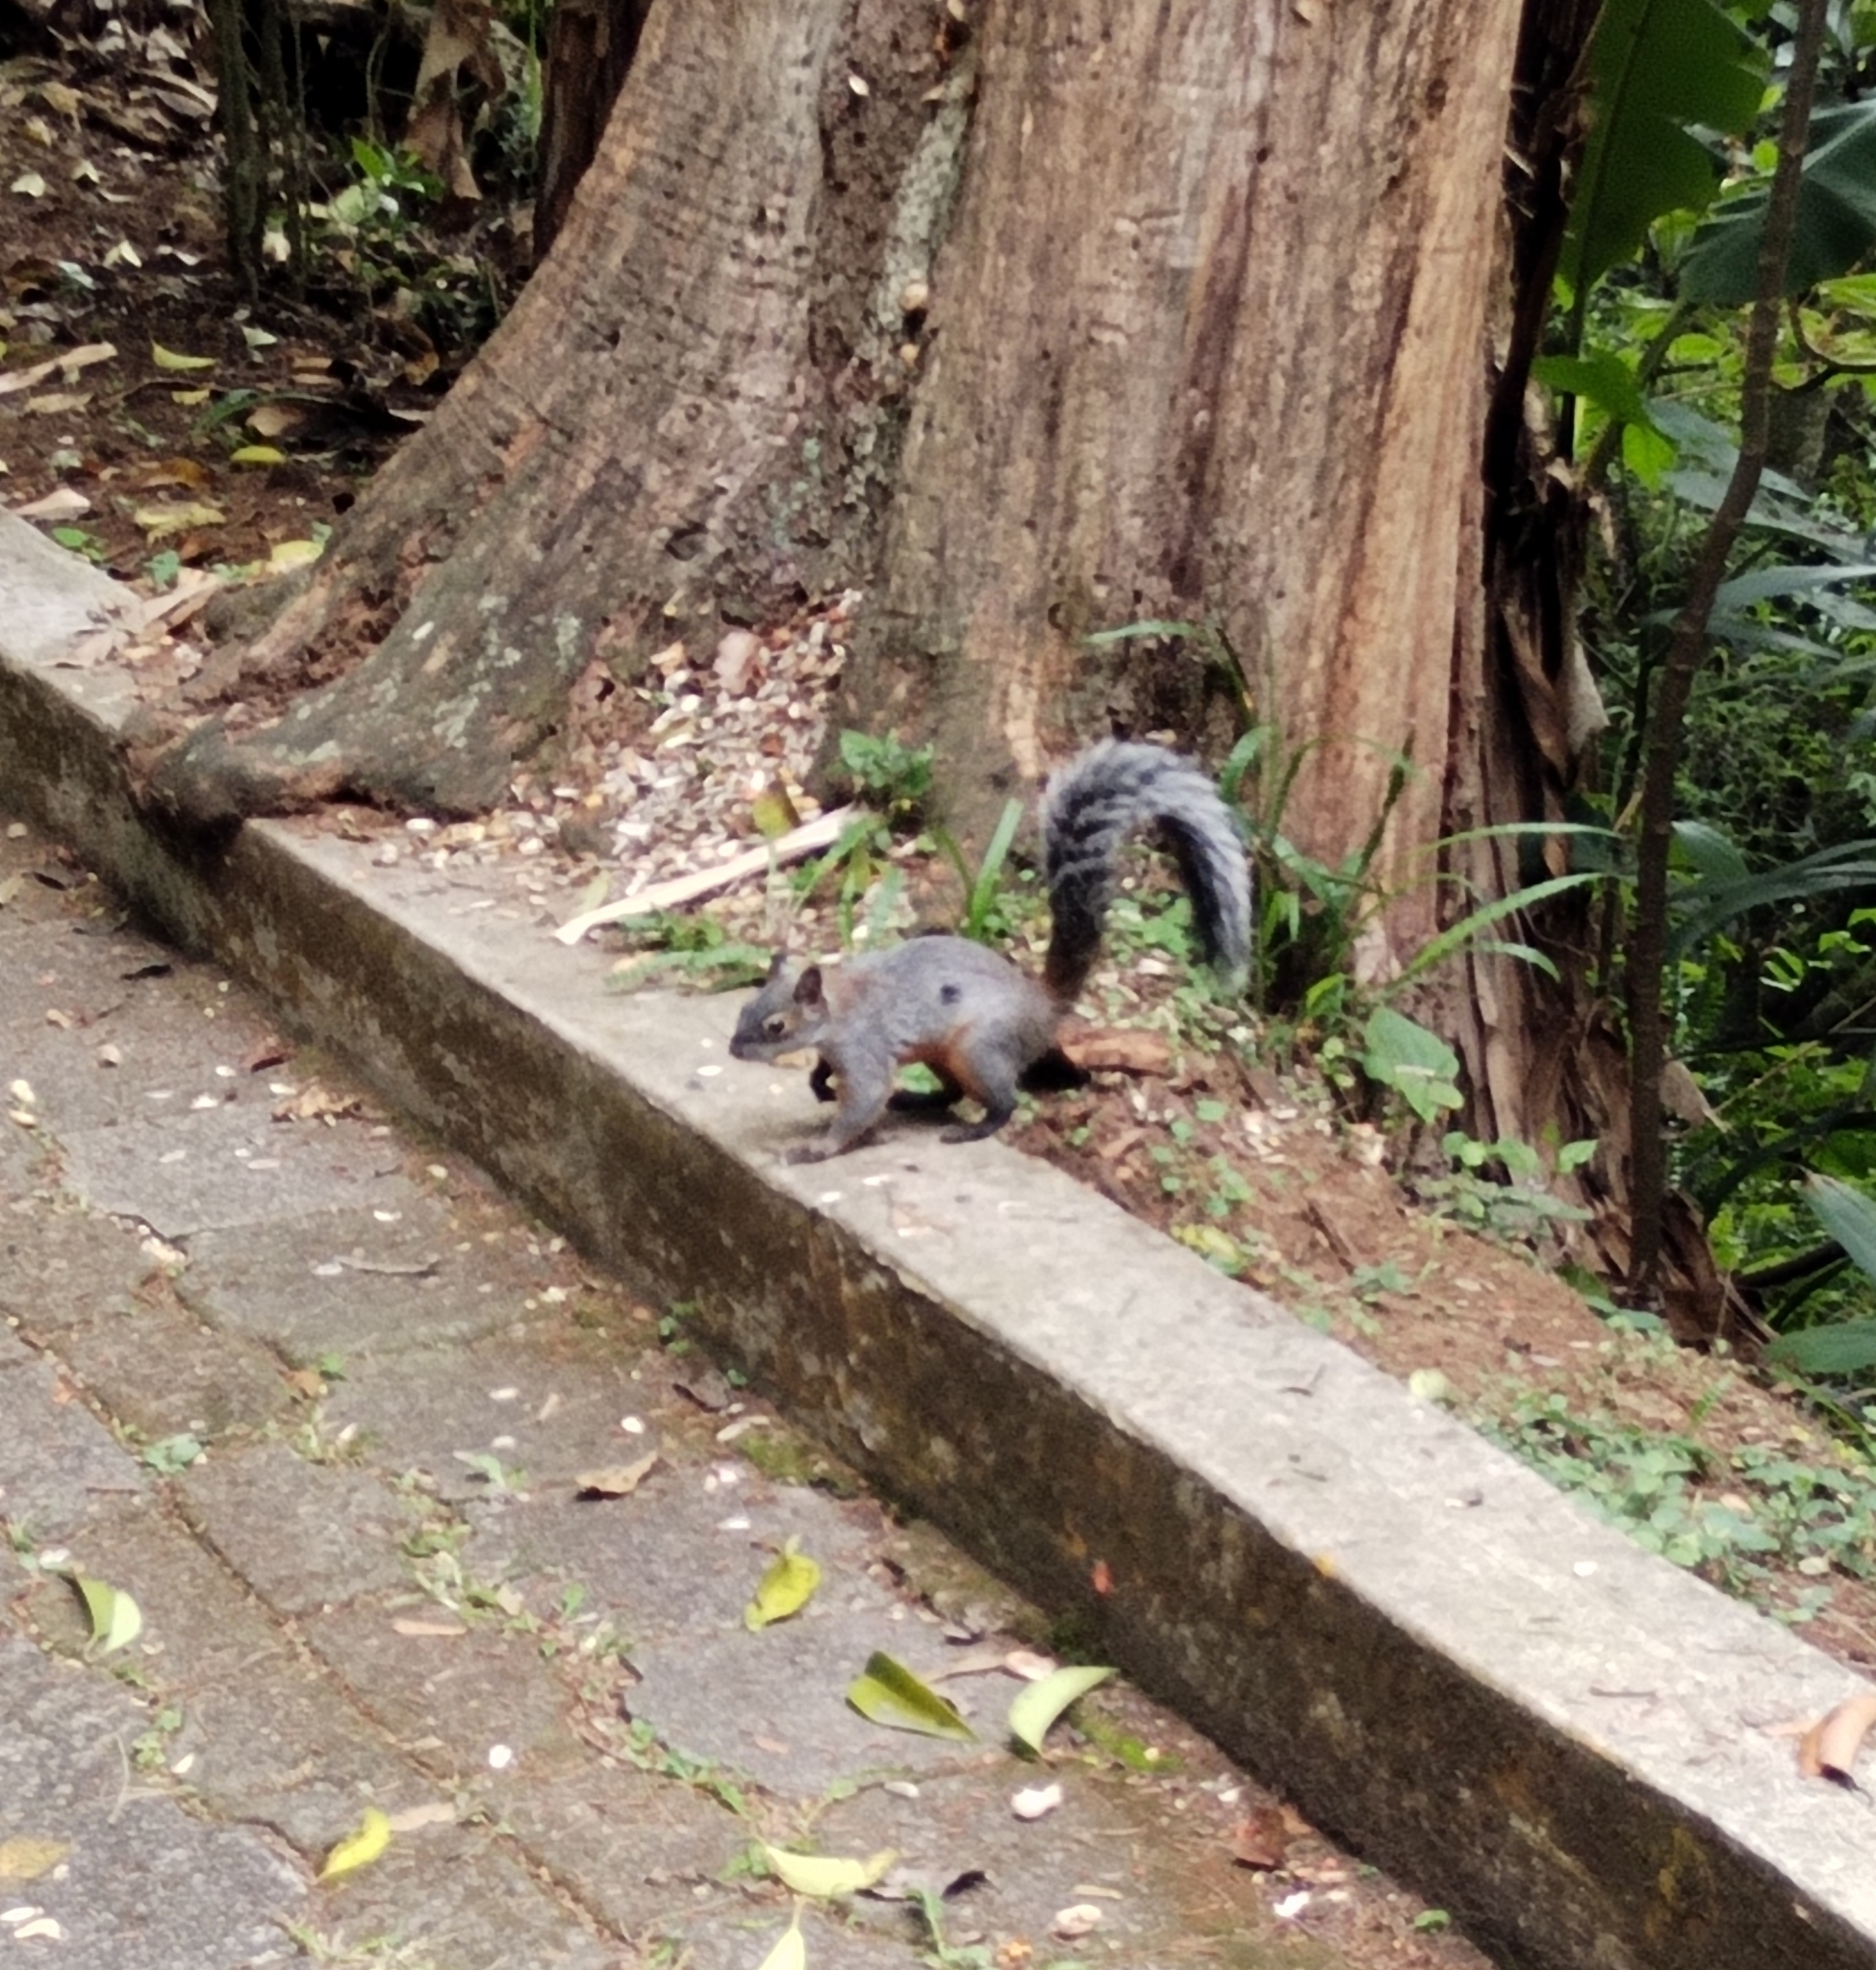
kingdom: Animalia
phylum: Chordata
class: Mammalia
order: Rodentia
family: Sciuridae
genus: Sciurus
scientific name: Sciurus aureogaster
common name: Red-bellied squirrel
